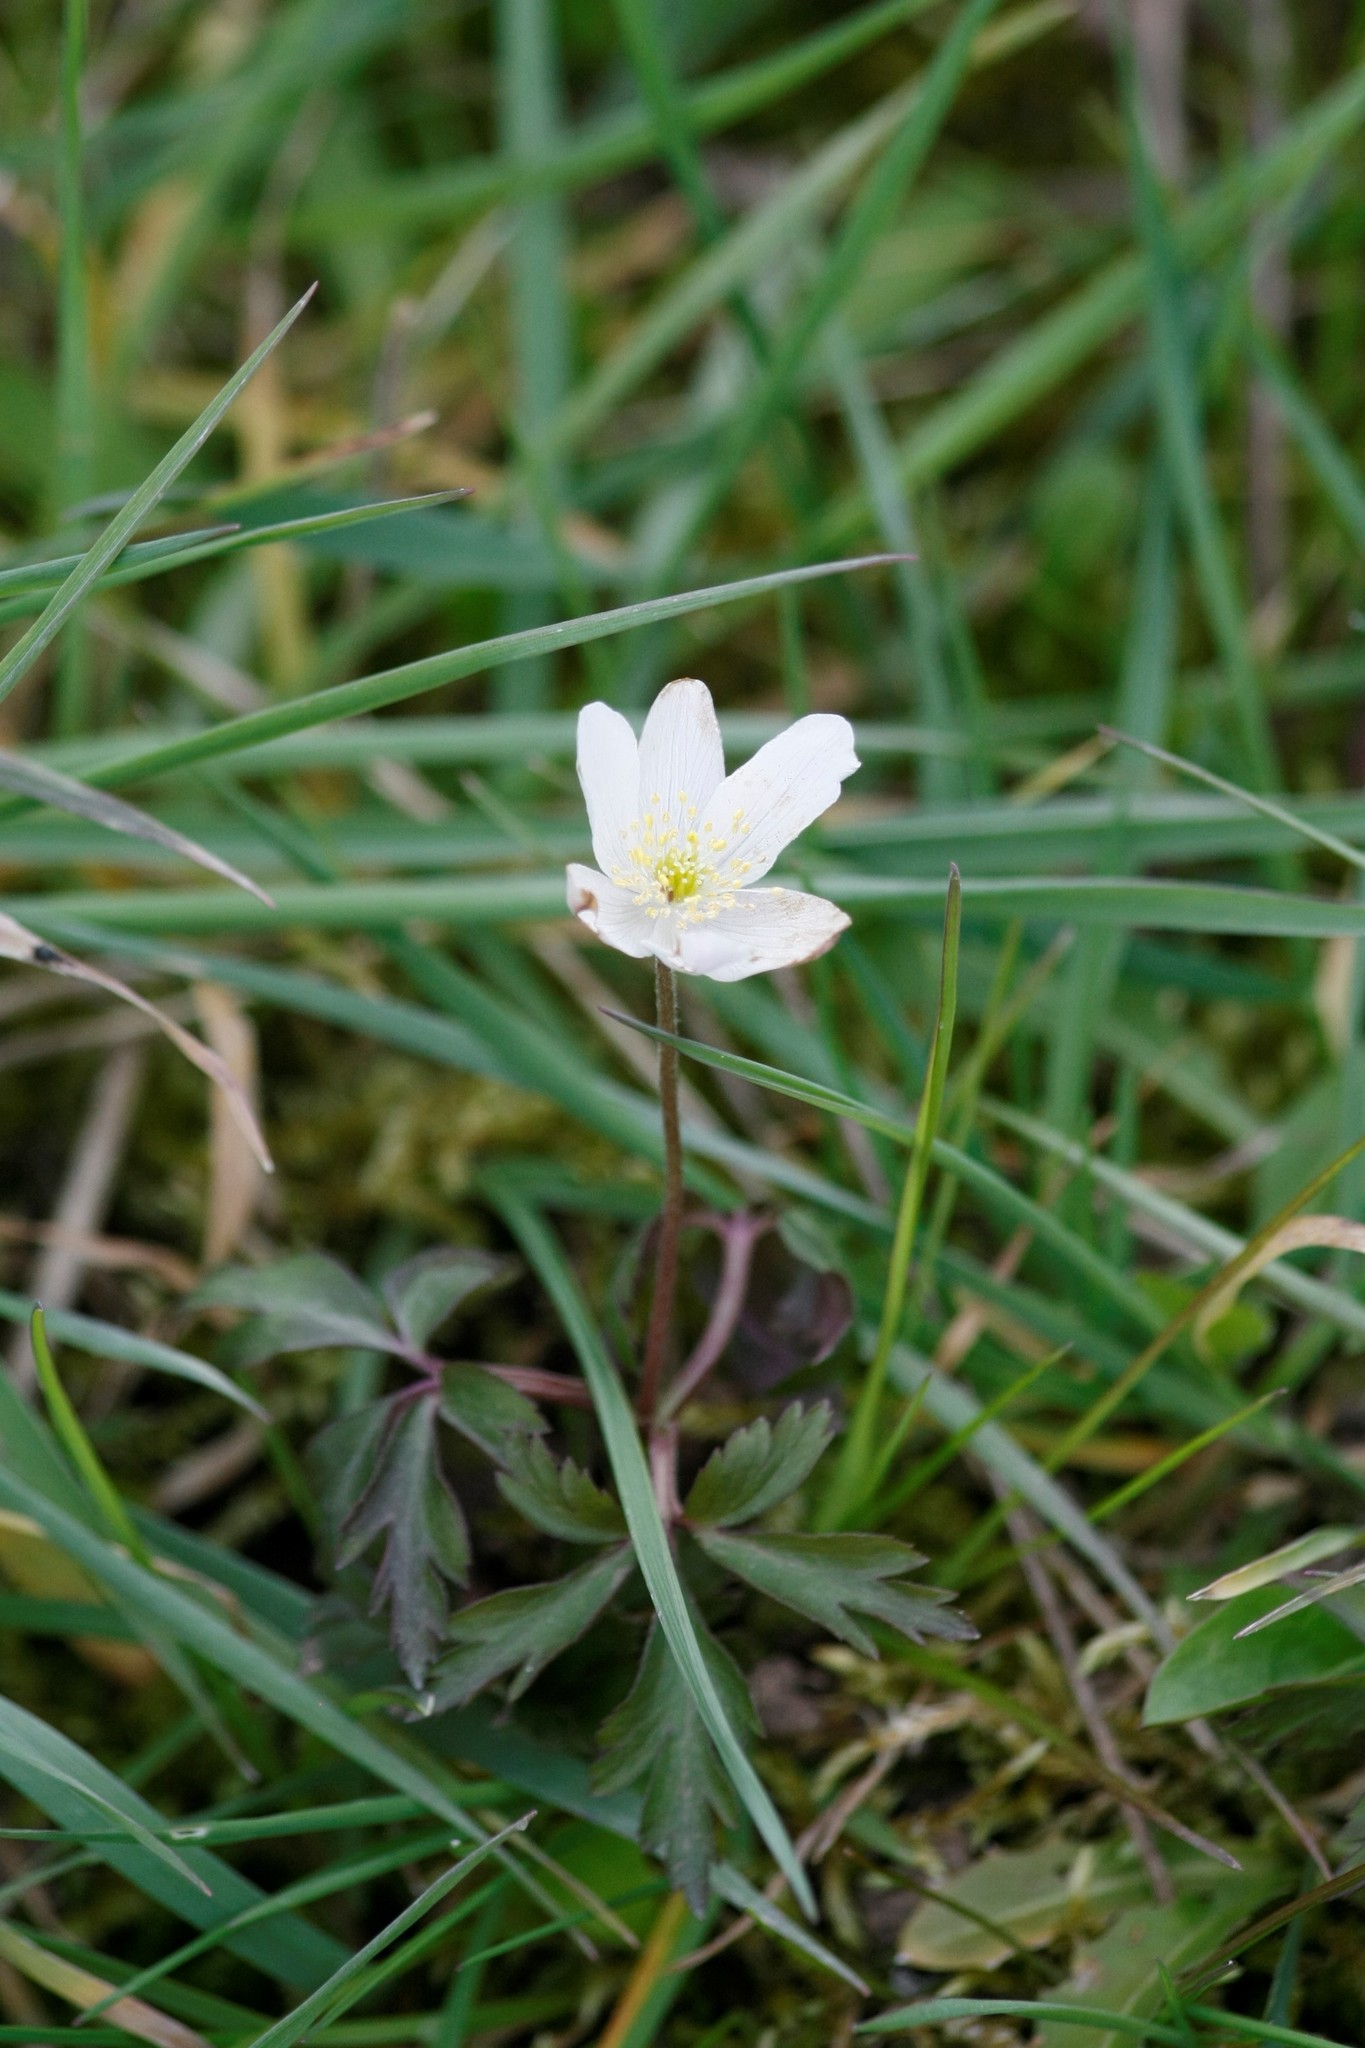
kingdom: Plantae
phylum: Tracheophyta
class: Magnoliopsida
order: Ranunculales
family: Ranunculaceae
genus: Anemone
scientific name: Anemone nemorosa
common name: Wood anemone
